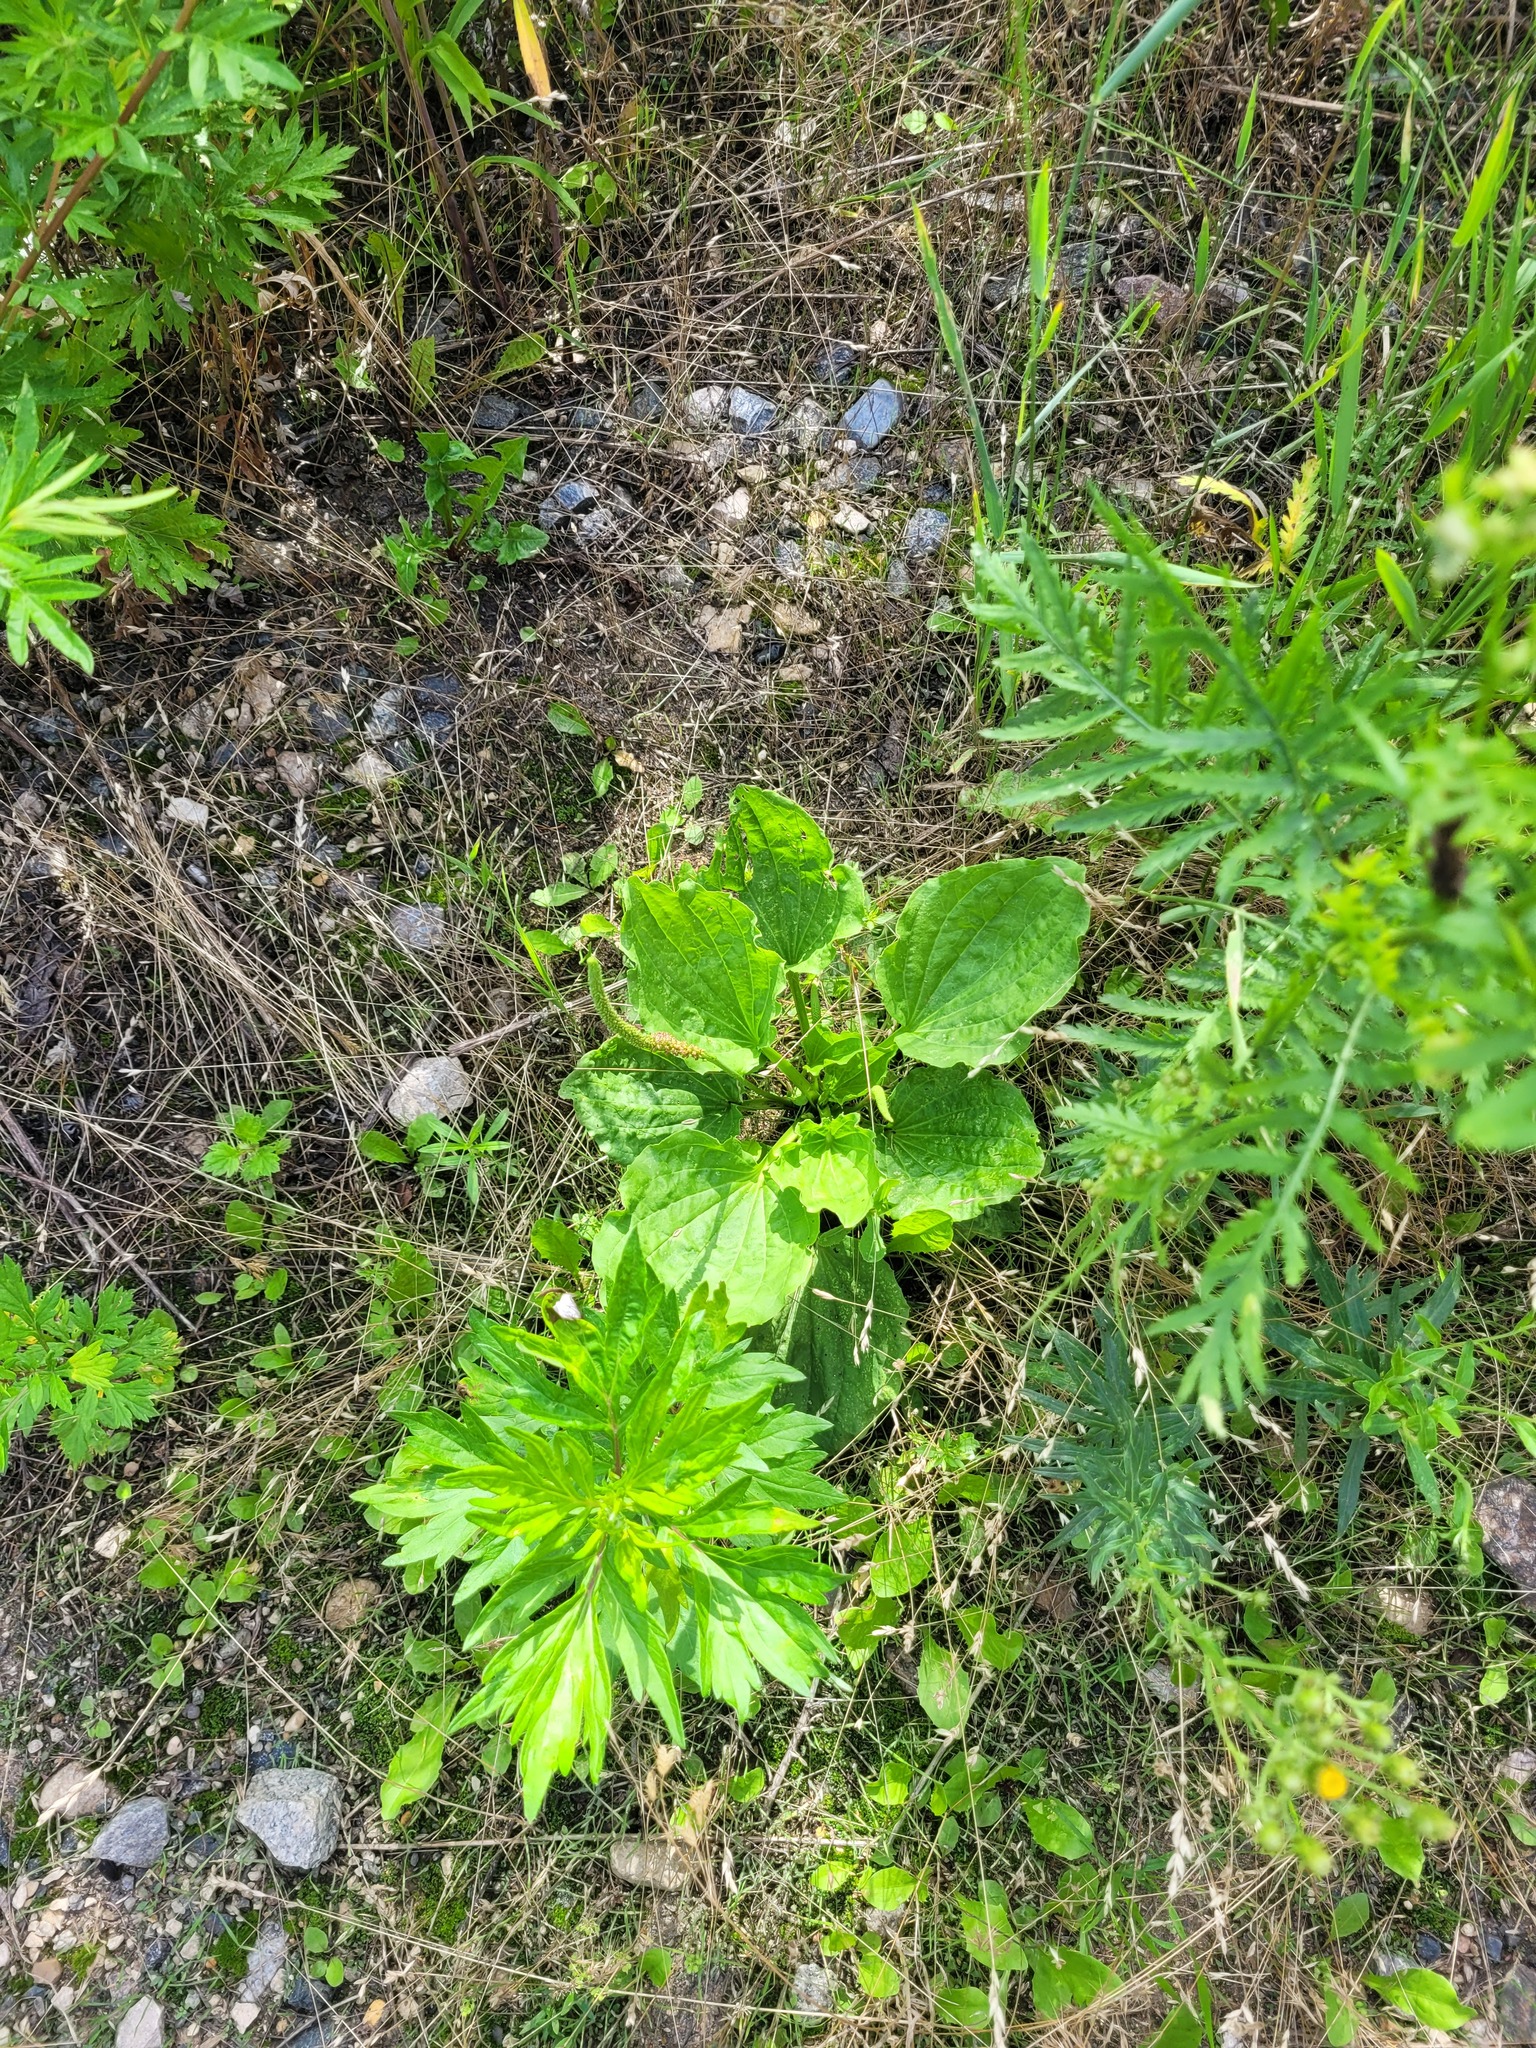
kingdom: Plantae
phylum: Tracheophyta
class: Magnoliopsida
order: Lamiales
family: Plantaginaceae
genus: Plantago
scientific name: Plantago major
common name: Common plantain
